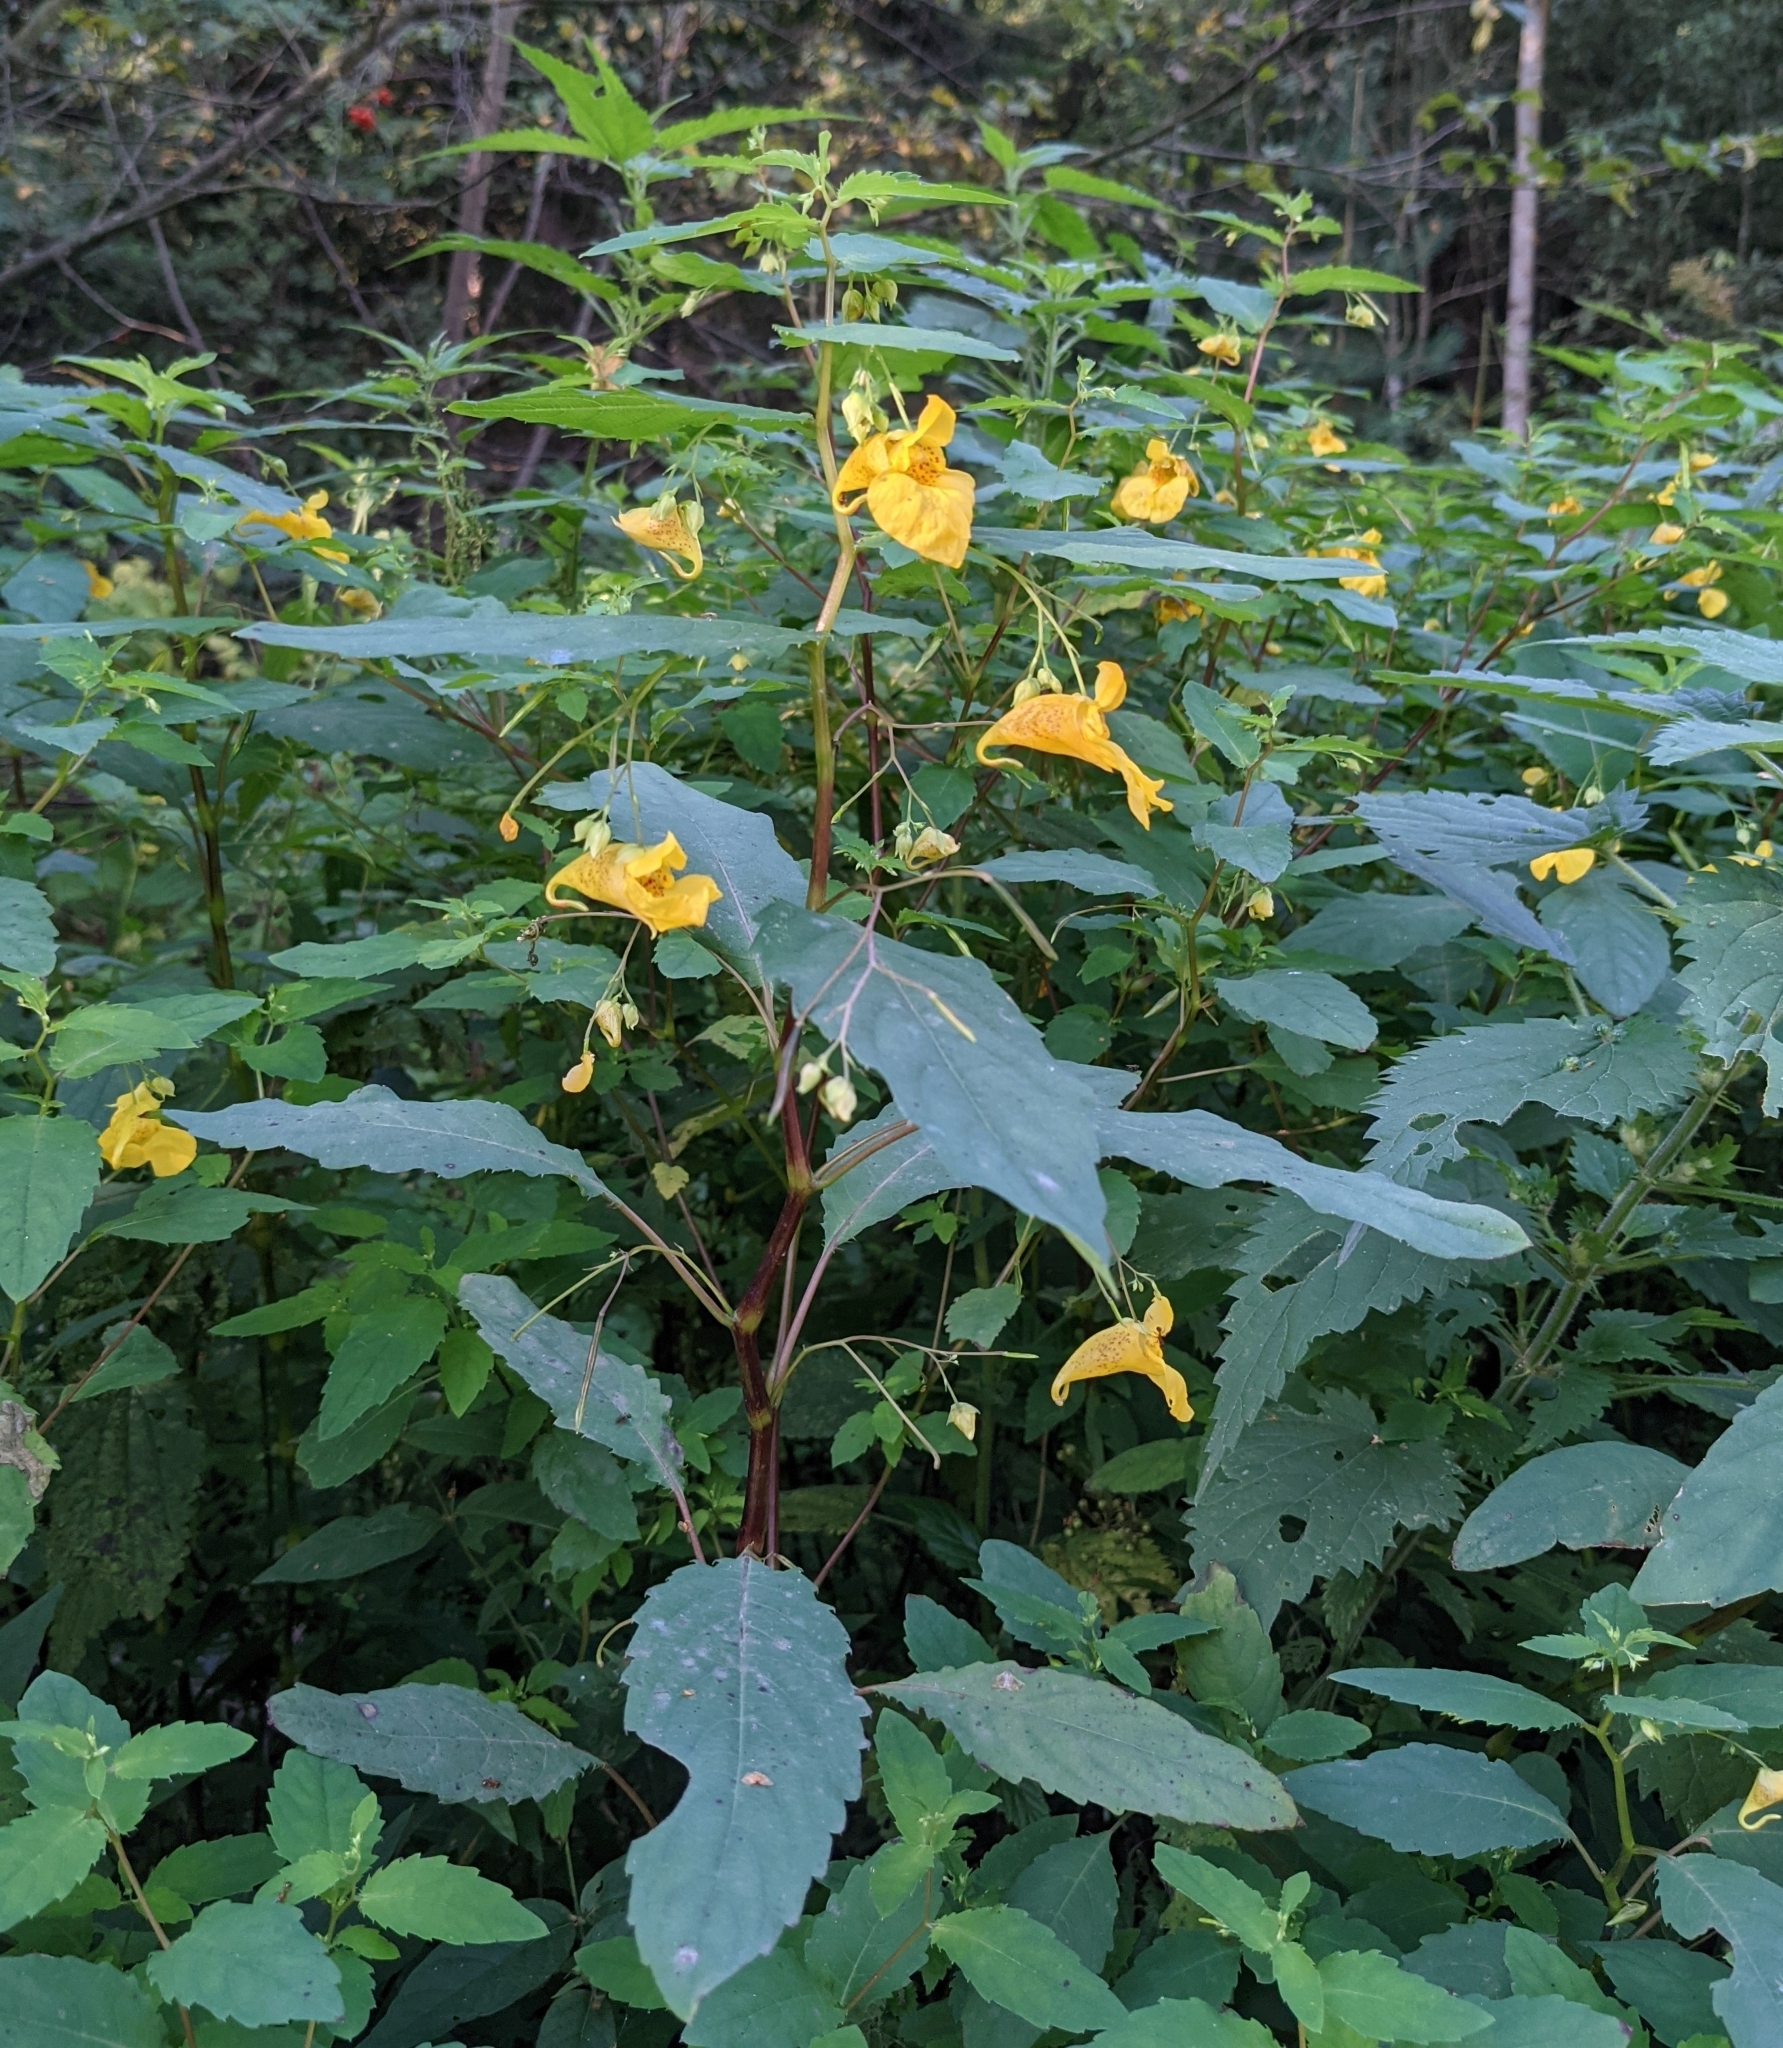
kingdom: Plantae
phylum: Tracheophyta
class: Magnoliopsida
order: Ericales
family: Balsaminaceae
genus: Impatiens
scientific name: Impatiens noli-tangere
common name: Touch-me-not balsam
